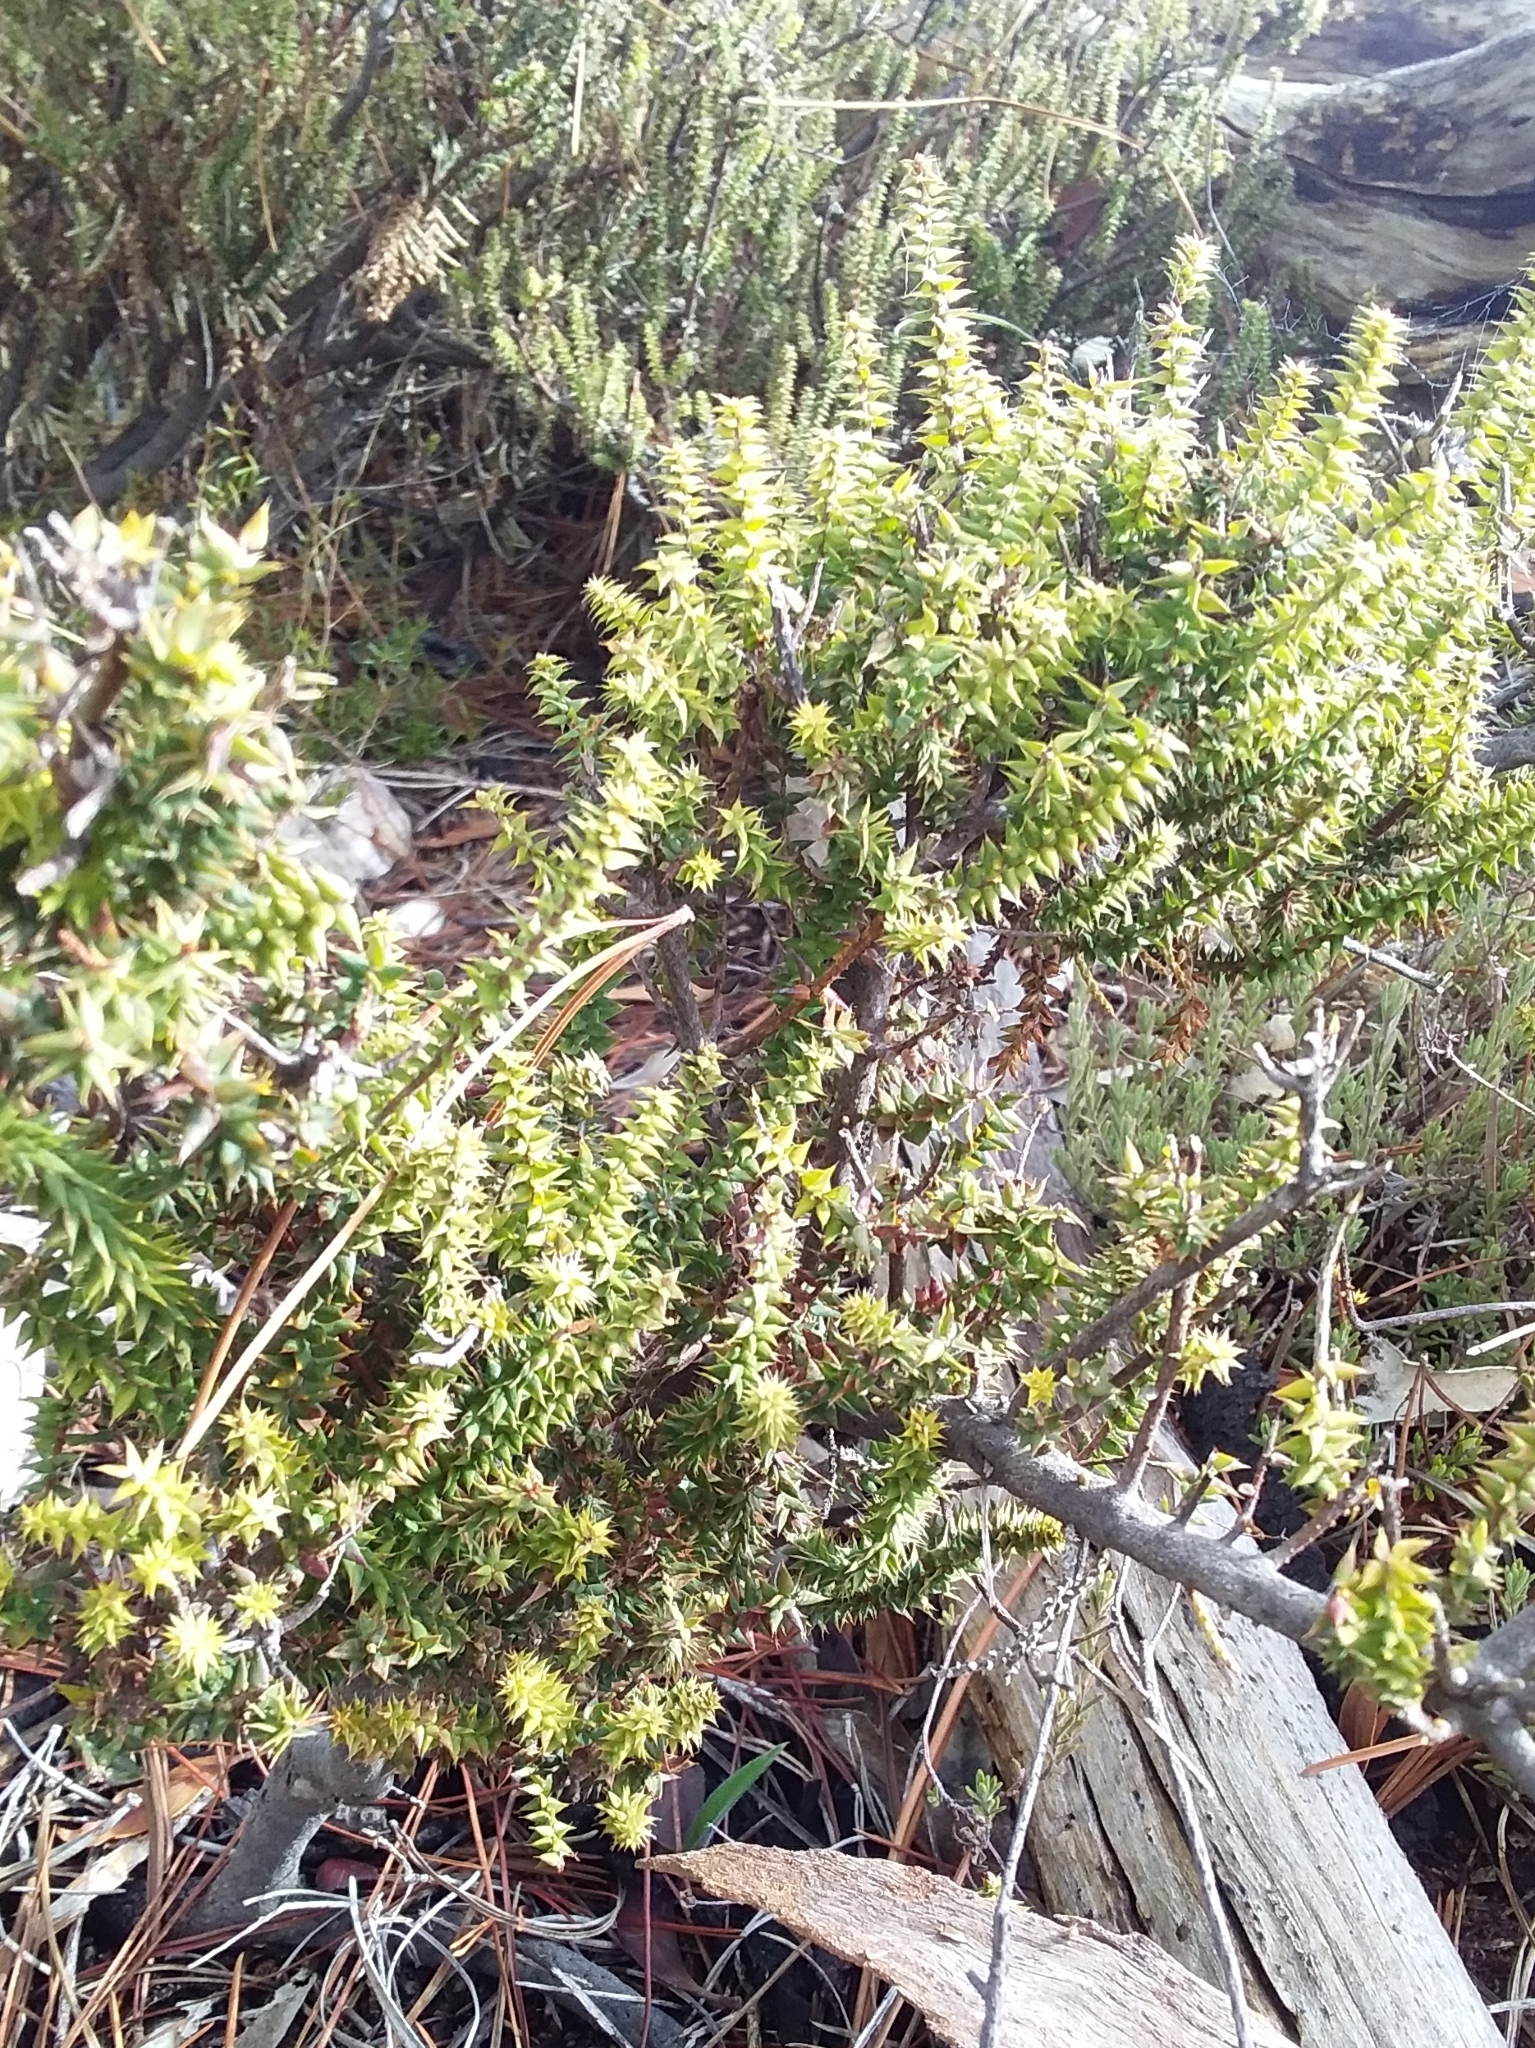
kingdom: Plantae
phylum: Tracheophyta
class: Magnoliopsida
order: Ericales
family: Ericaceae
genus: Acrotriche
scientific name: Acrotriche fasciculiflora
